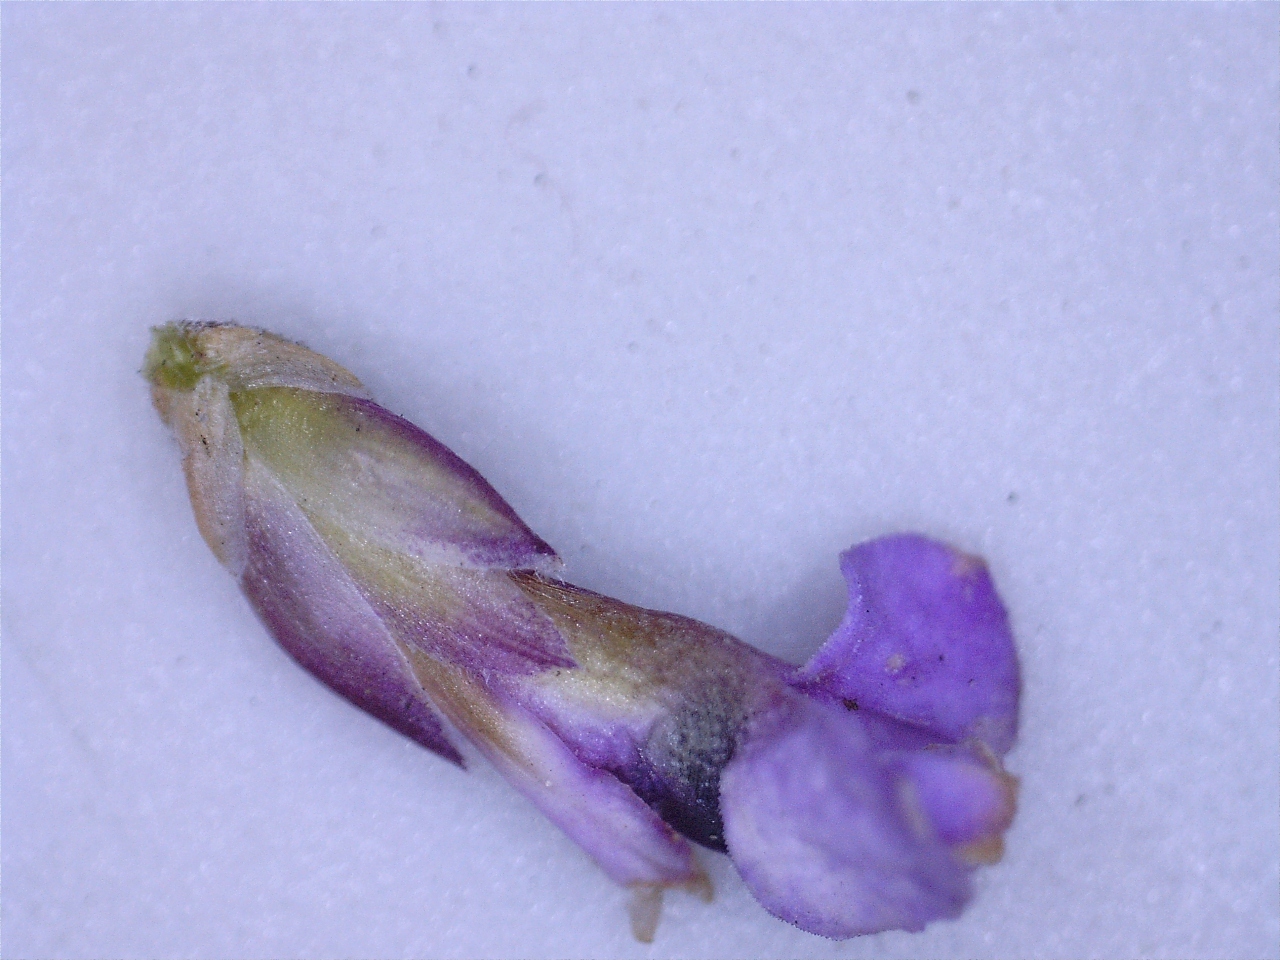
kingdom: Plantae
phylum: Tracheophyta
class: Magnoliopsida
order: Fabales
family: Polygalaceae
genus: Muraltia
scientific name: Muraltia ericoides
